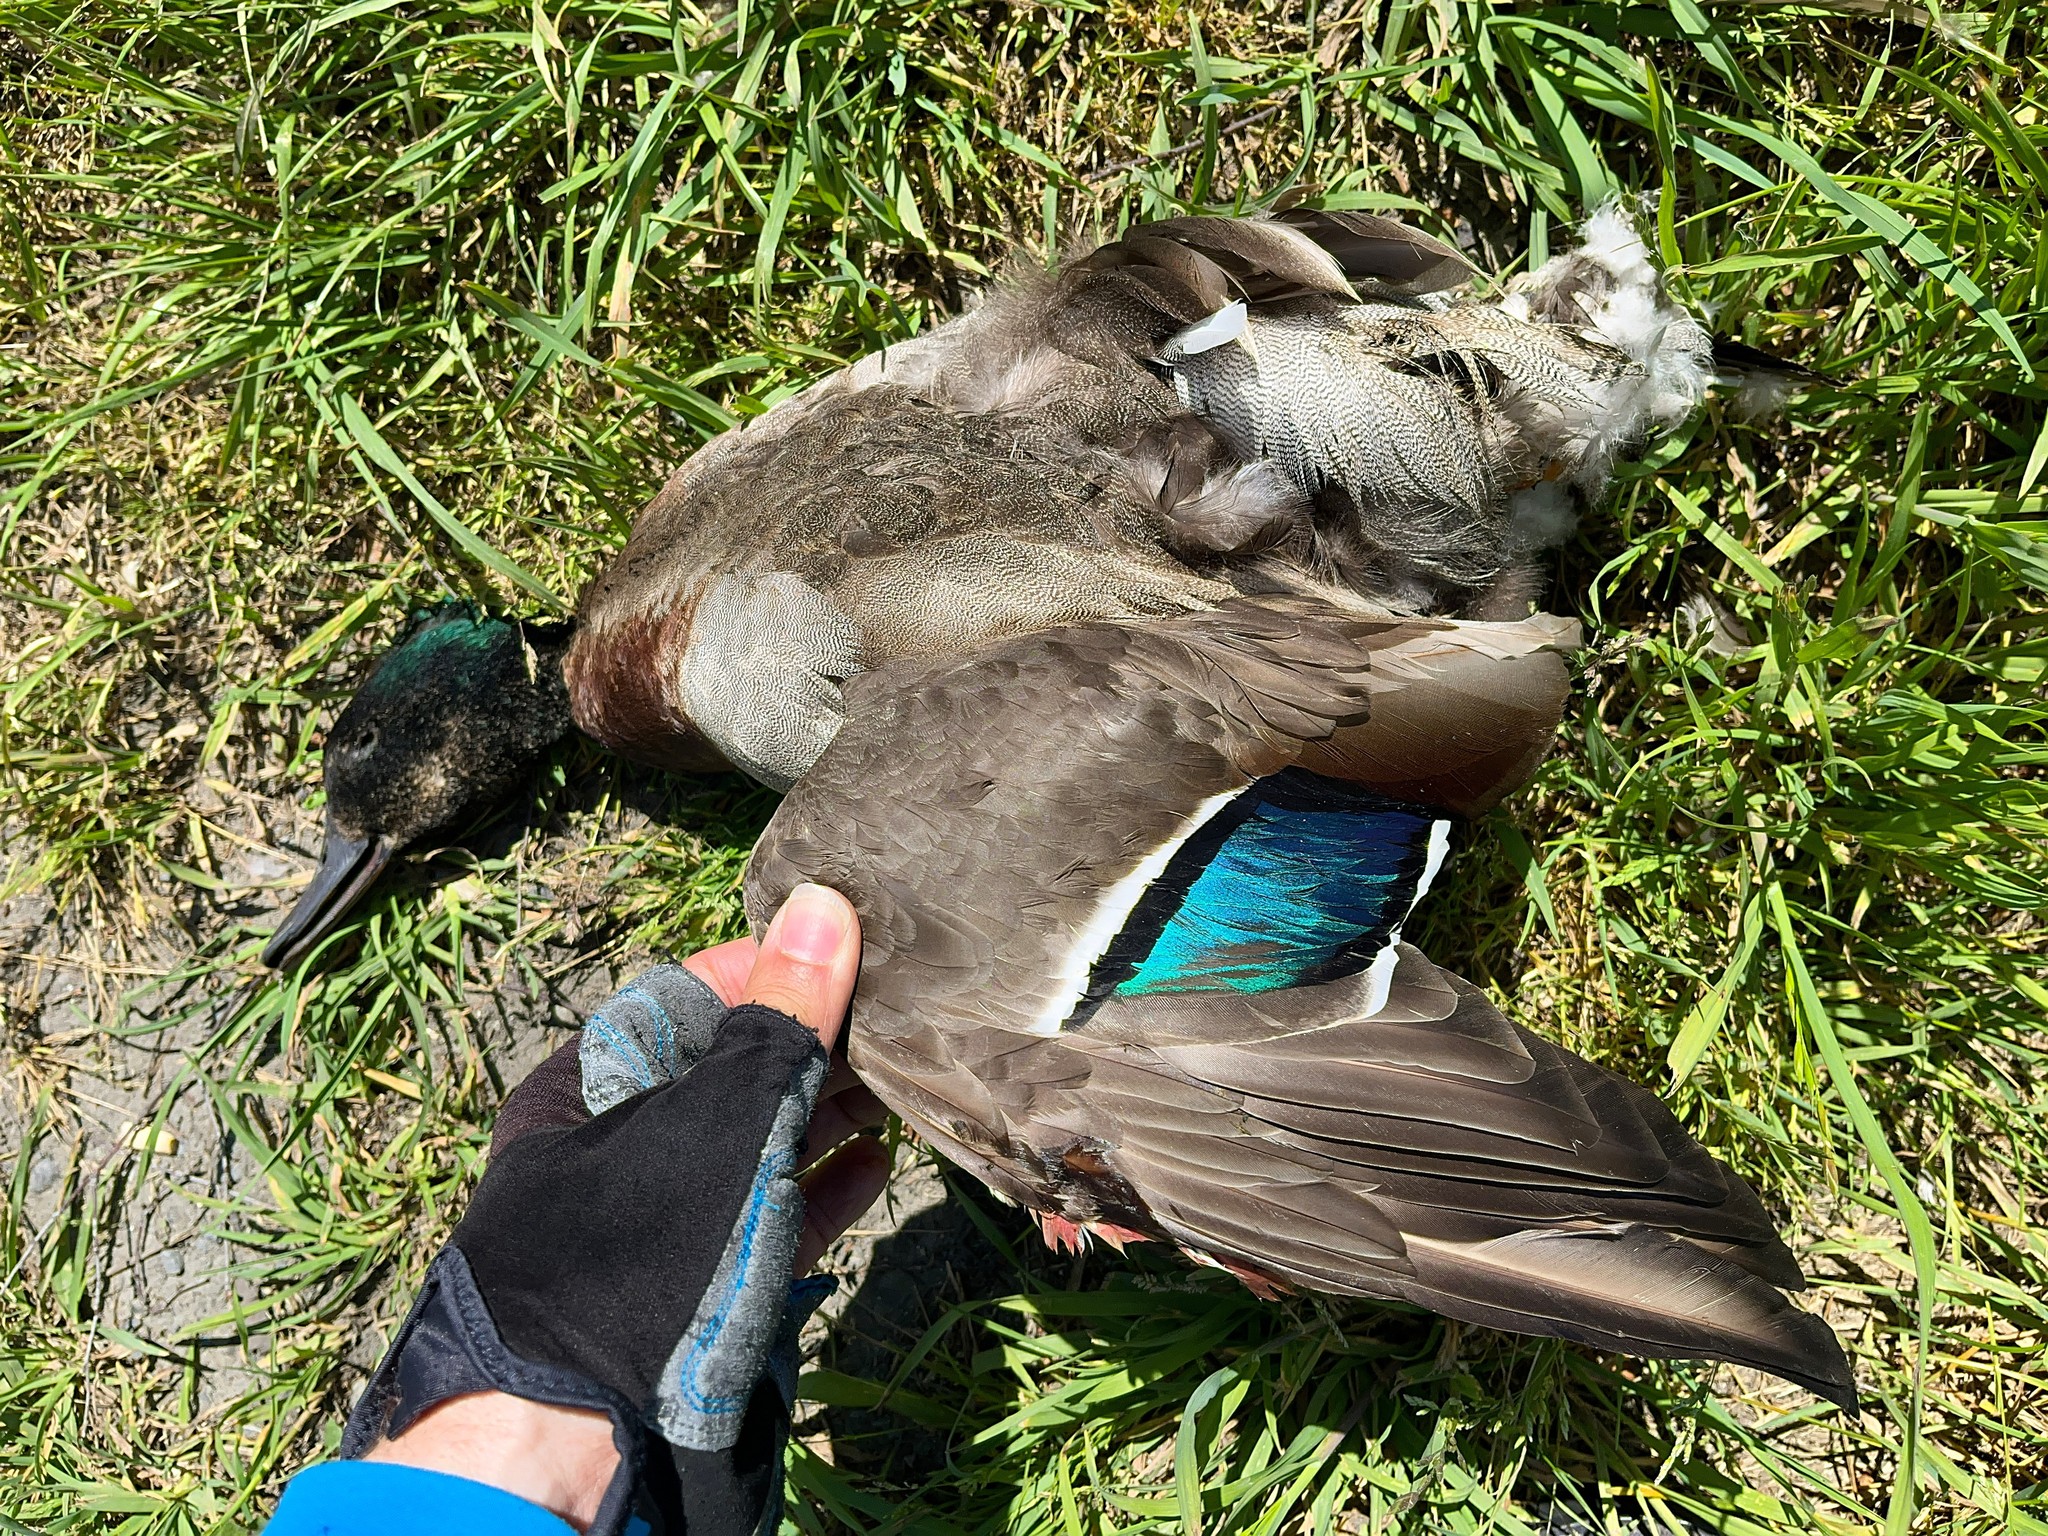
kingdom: Animalia
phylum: Chordata
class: Aves
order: Anseriformes
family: Anatidae
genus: Anas
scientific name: Anas platyrhynchos
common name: Mallard
